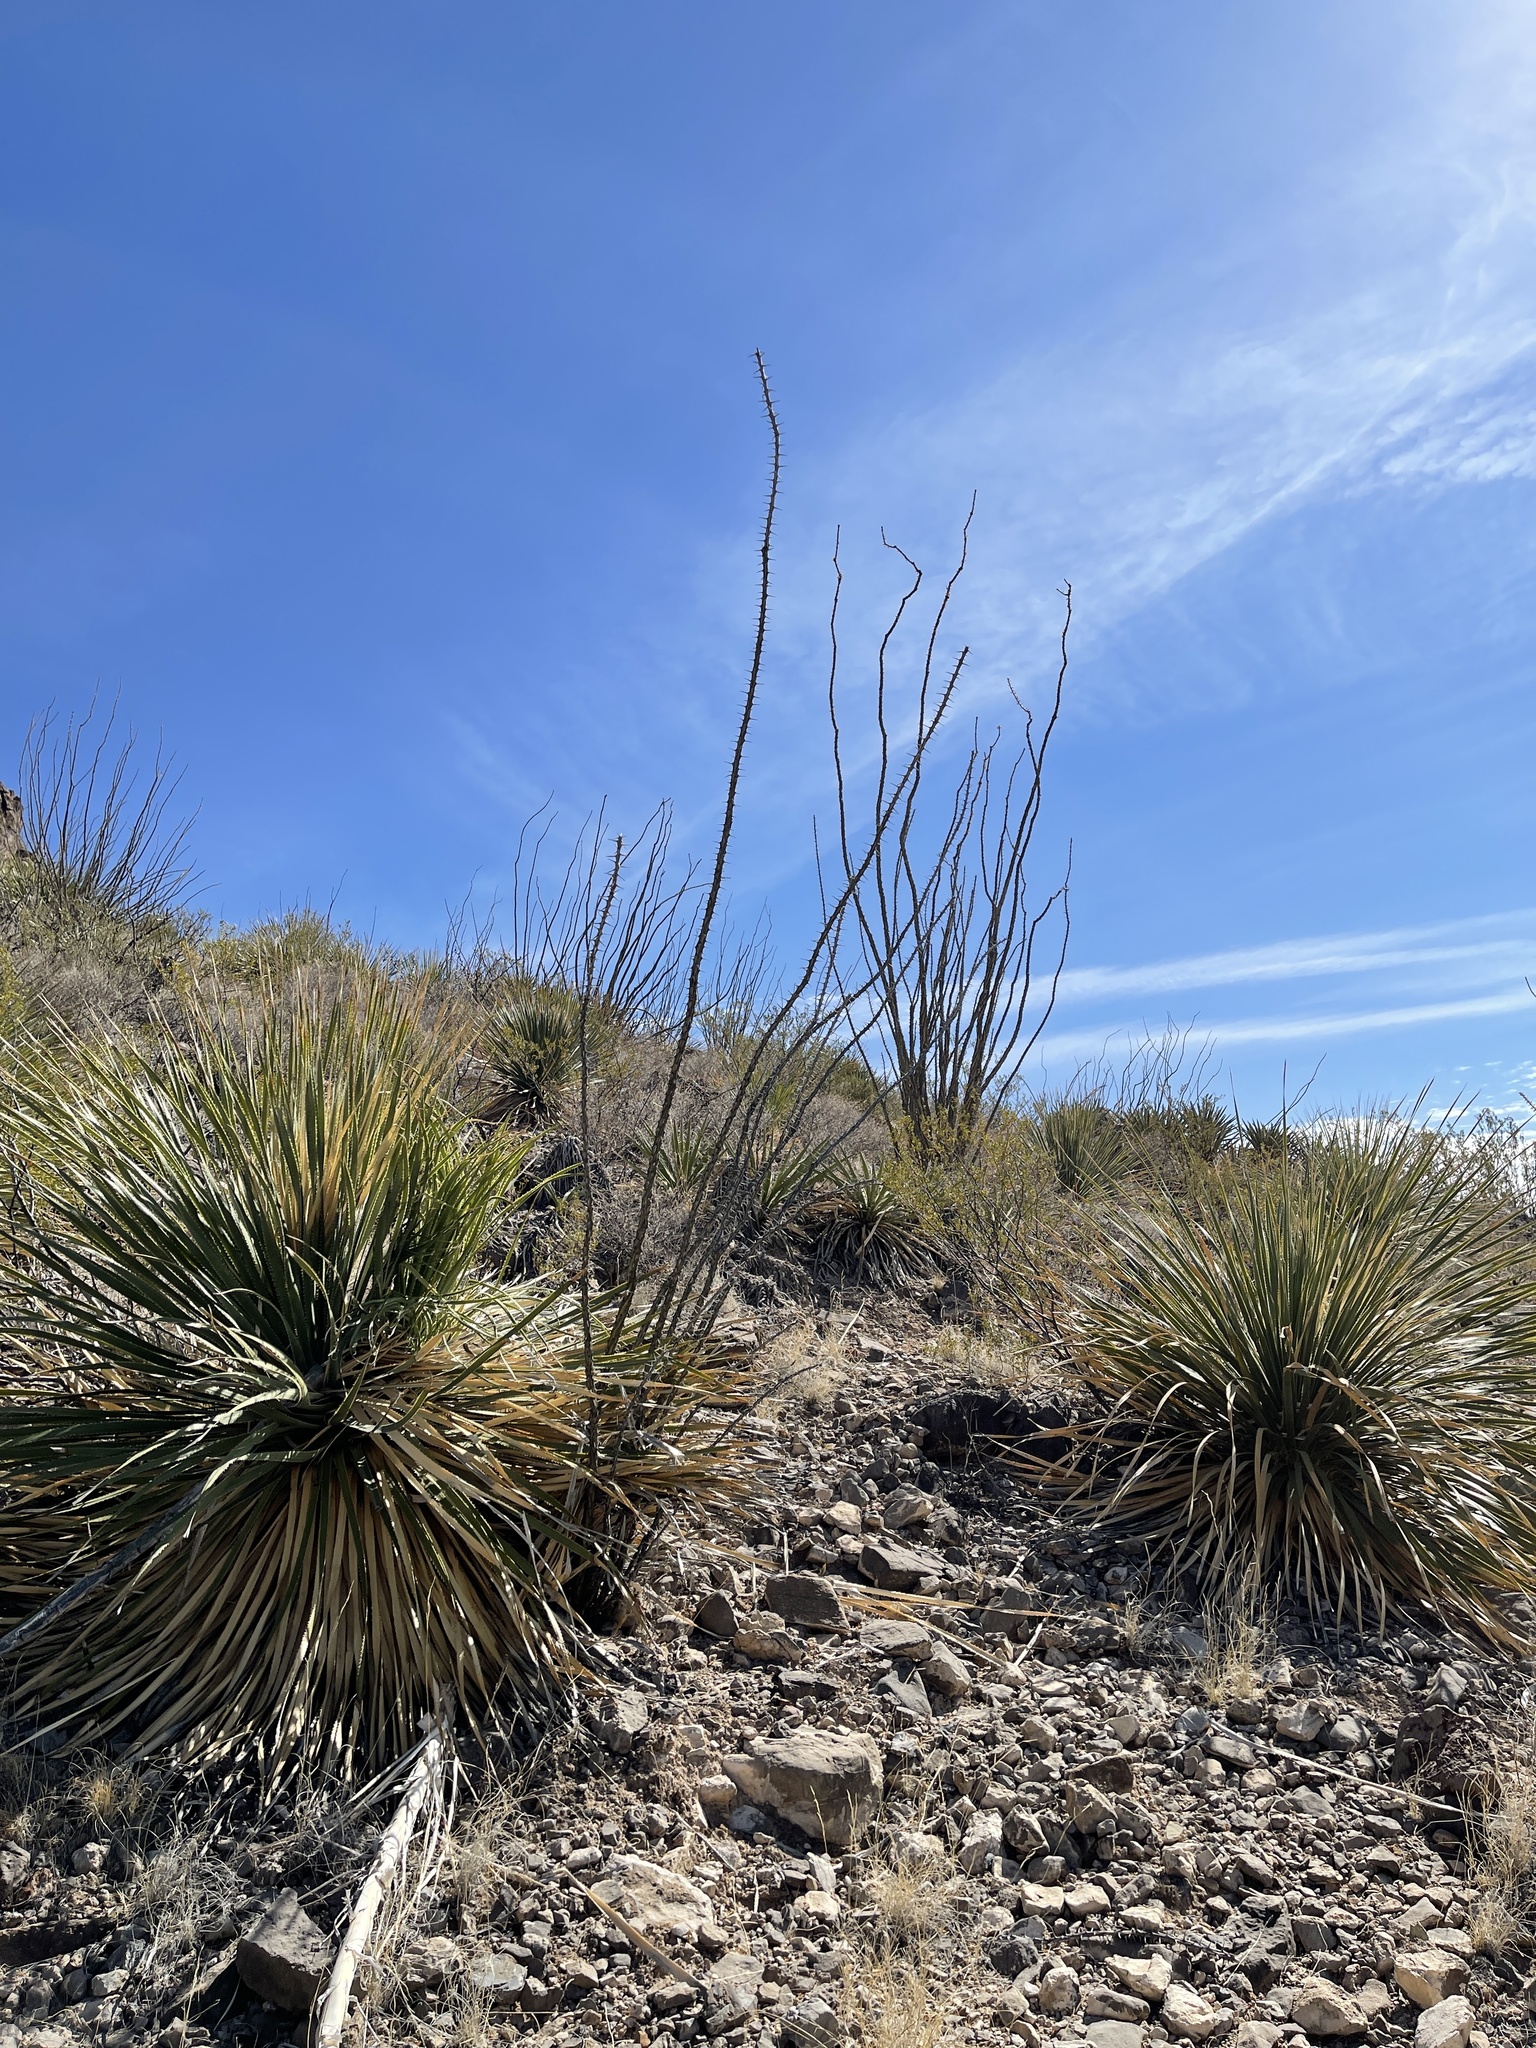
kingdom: Plantae
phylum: Tracheophyta
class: Magnoliopsida
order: Ericales
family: Fouquieriaceae
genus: Fouquieria
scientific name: Fouquieria splendens
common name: Vine-cactus
